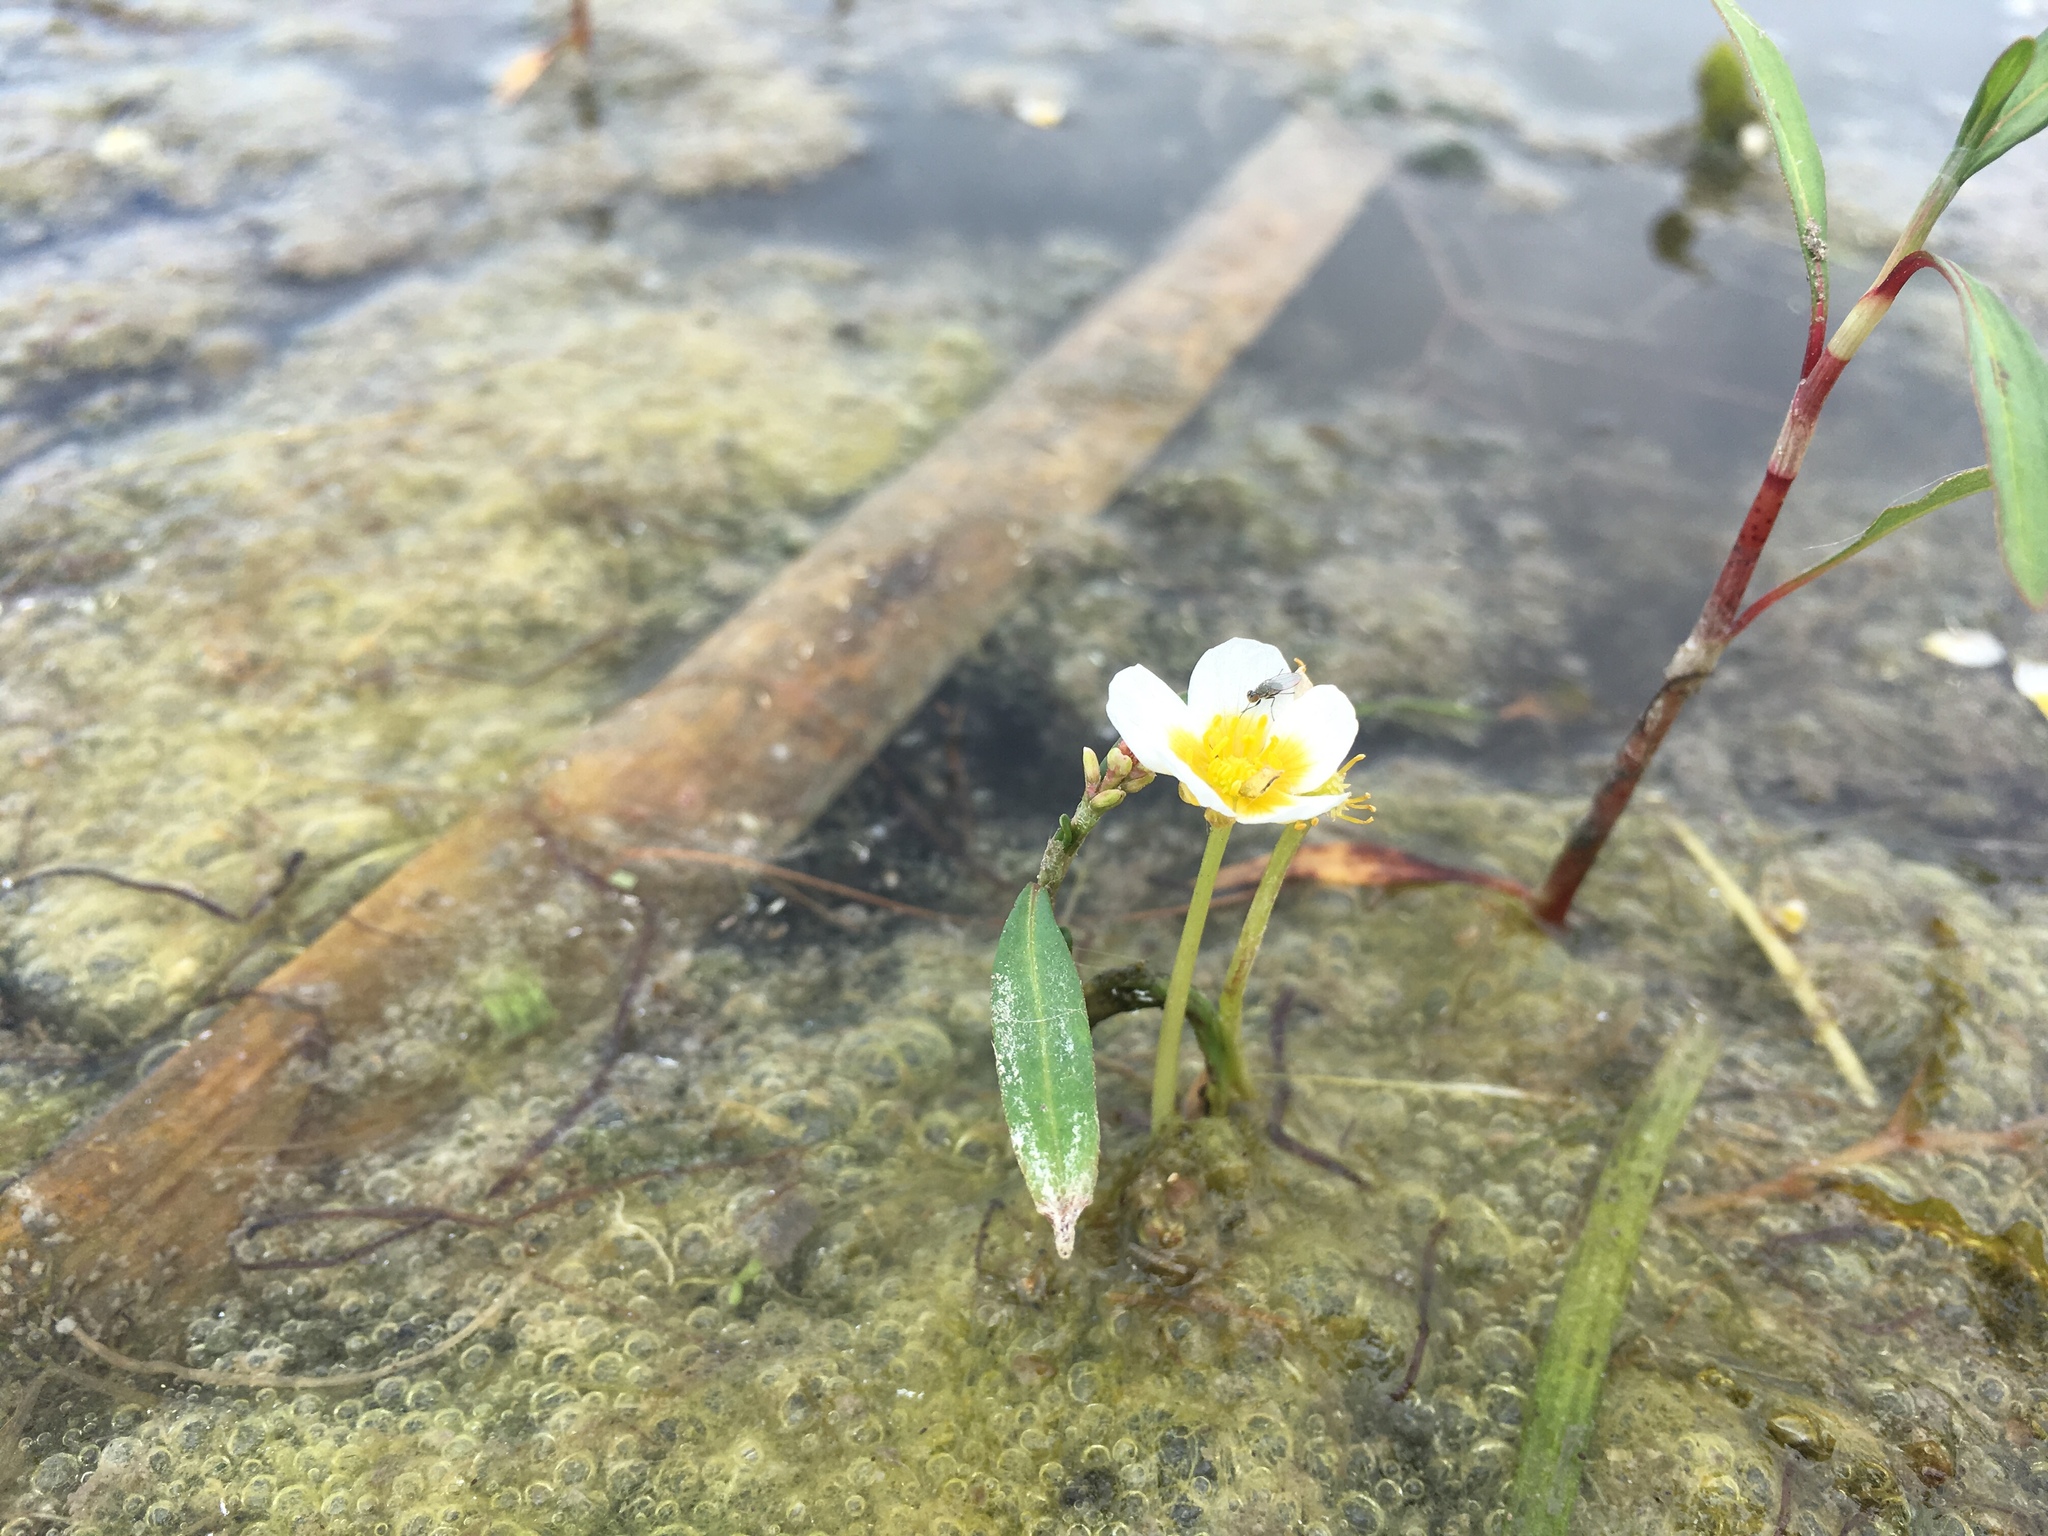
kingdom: Plantae
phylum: Tracheophyta
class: Magnoliopsida
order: Ranunculales
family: Ranunculaceae
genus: Ranunculus
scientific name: Ranunculus
